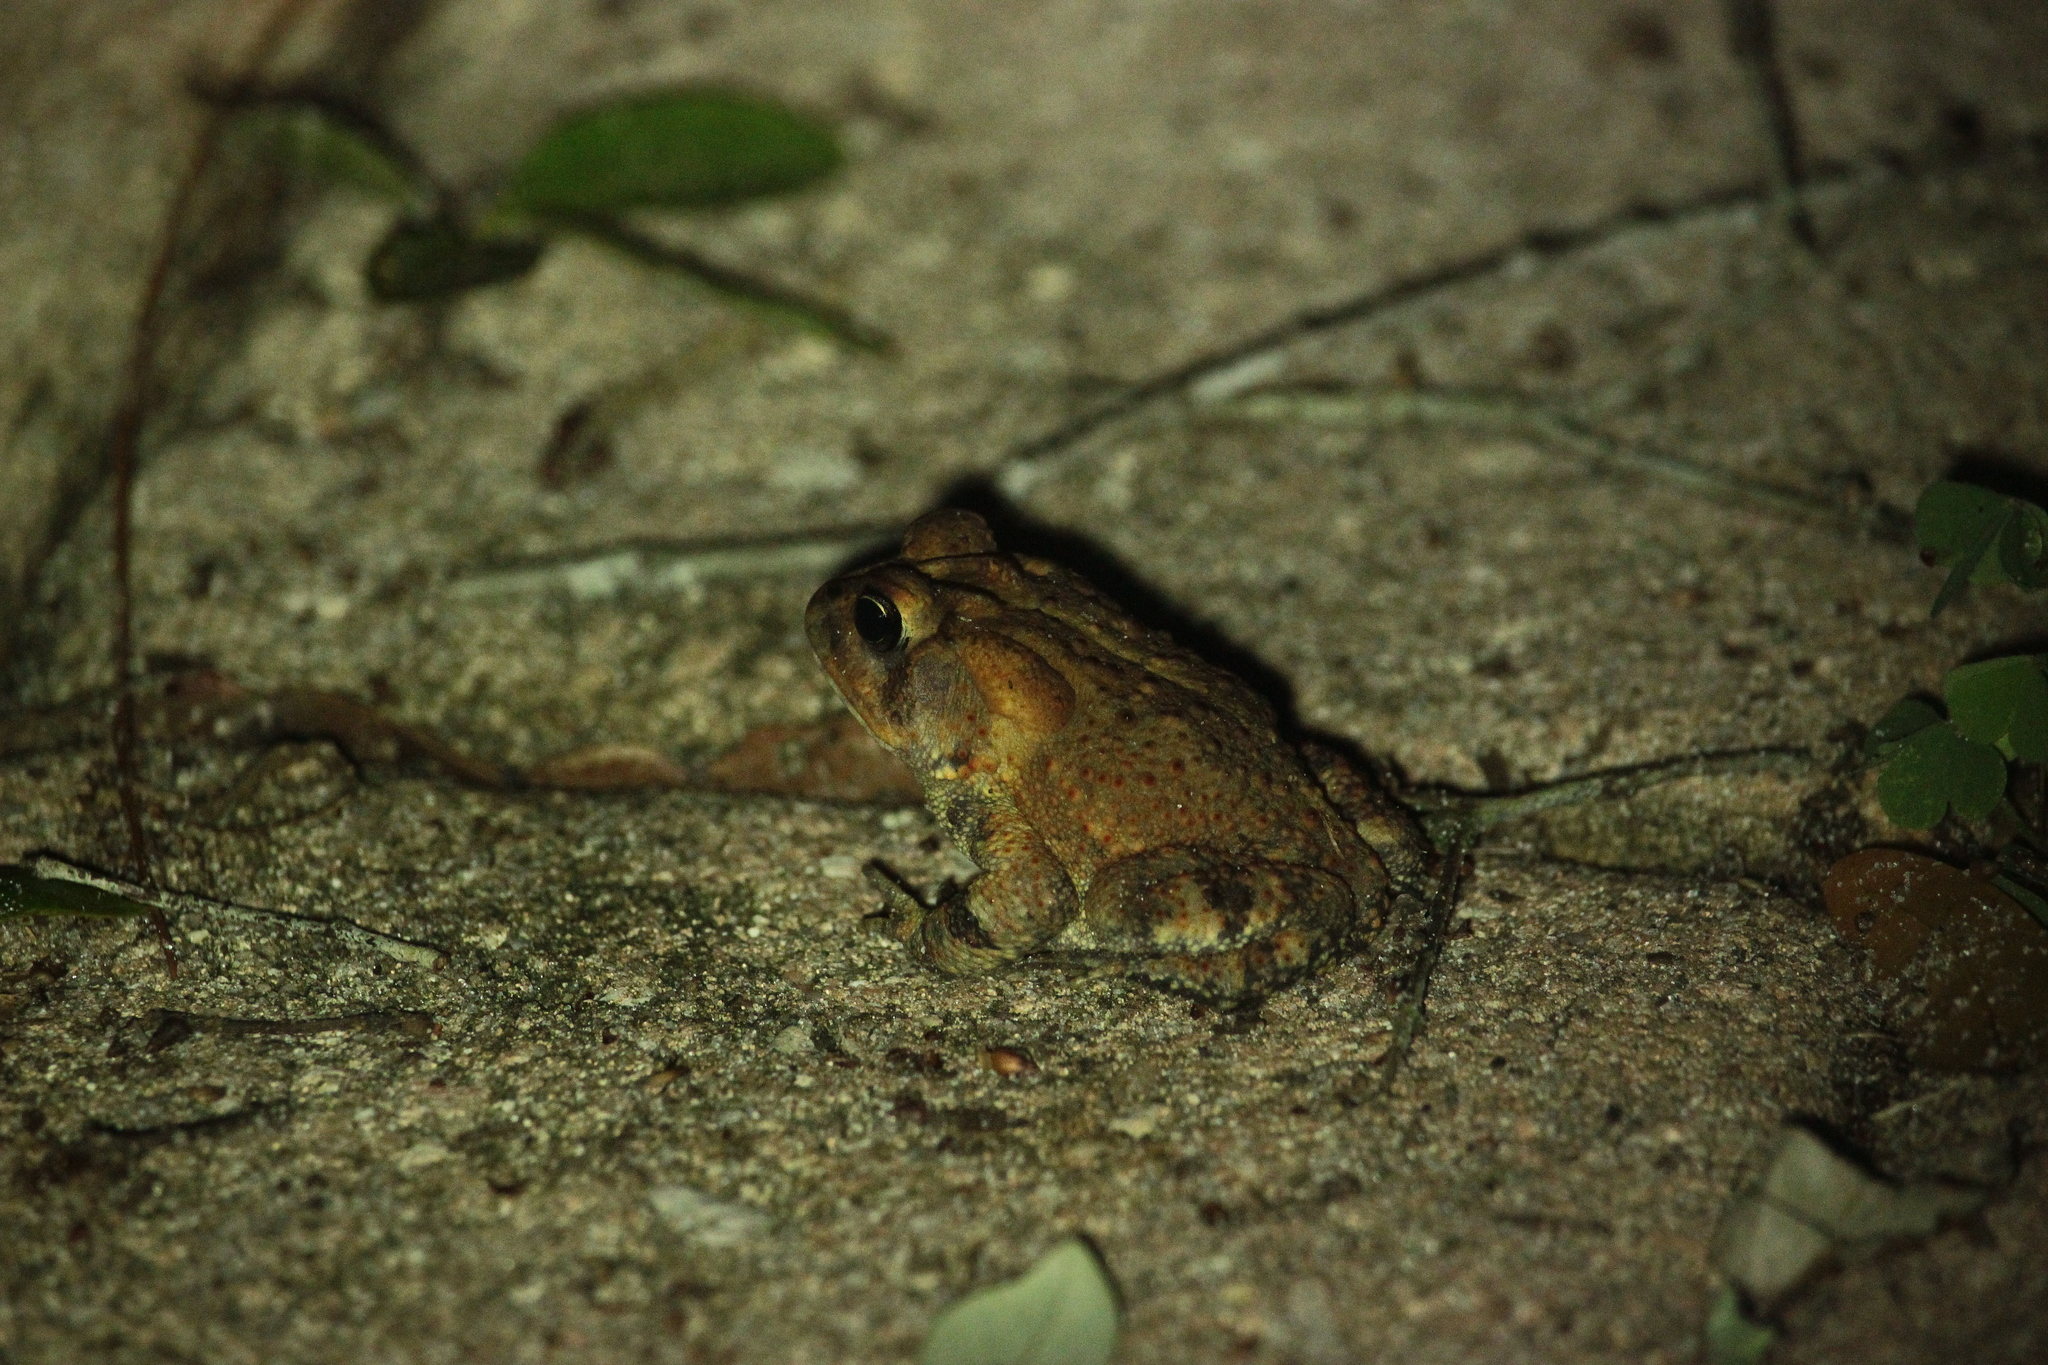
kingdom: Animalia
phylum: Chordata
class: Amphibia
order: Anura
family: Bufonidae
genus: Anaxyrus
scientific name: Anaxyrus terrestris
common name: Southern toad
